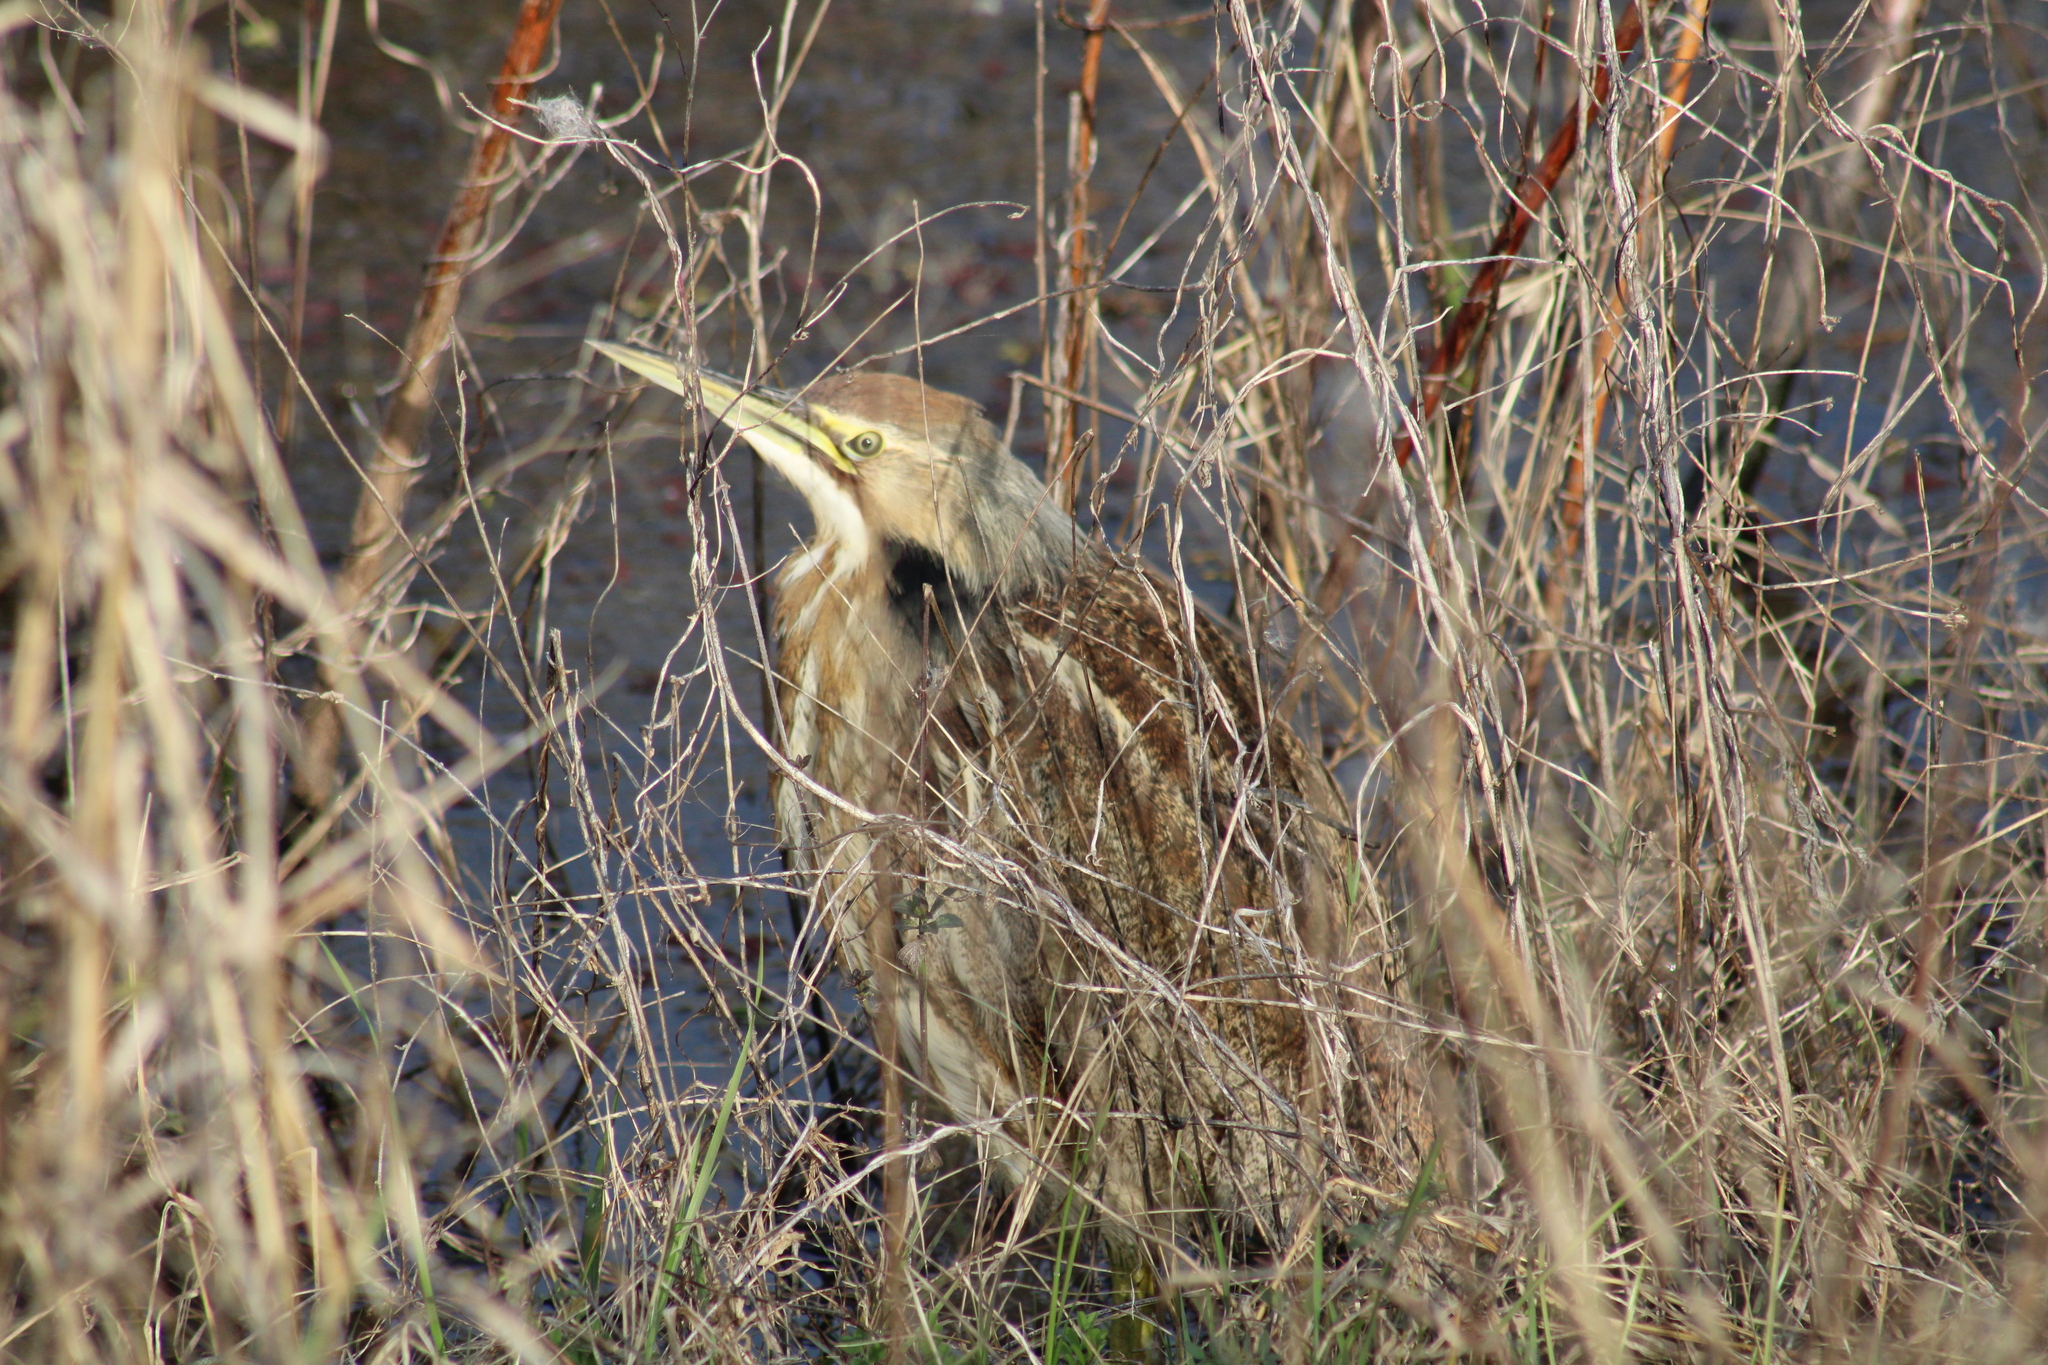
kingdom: Animalia
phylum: Chordata
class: Aves
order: Pelecaniformes
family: Ardeidae
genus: Botaurus
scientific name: Botaurus lentiginosus
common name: American bittern
